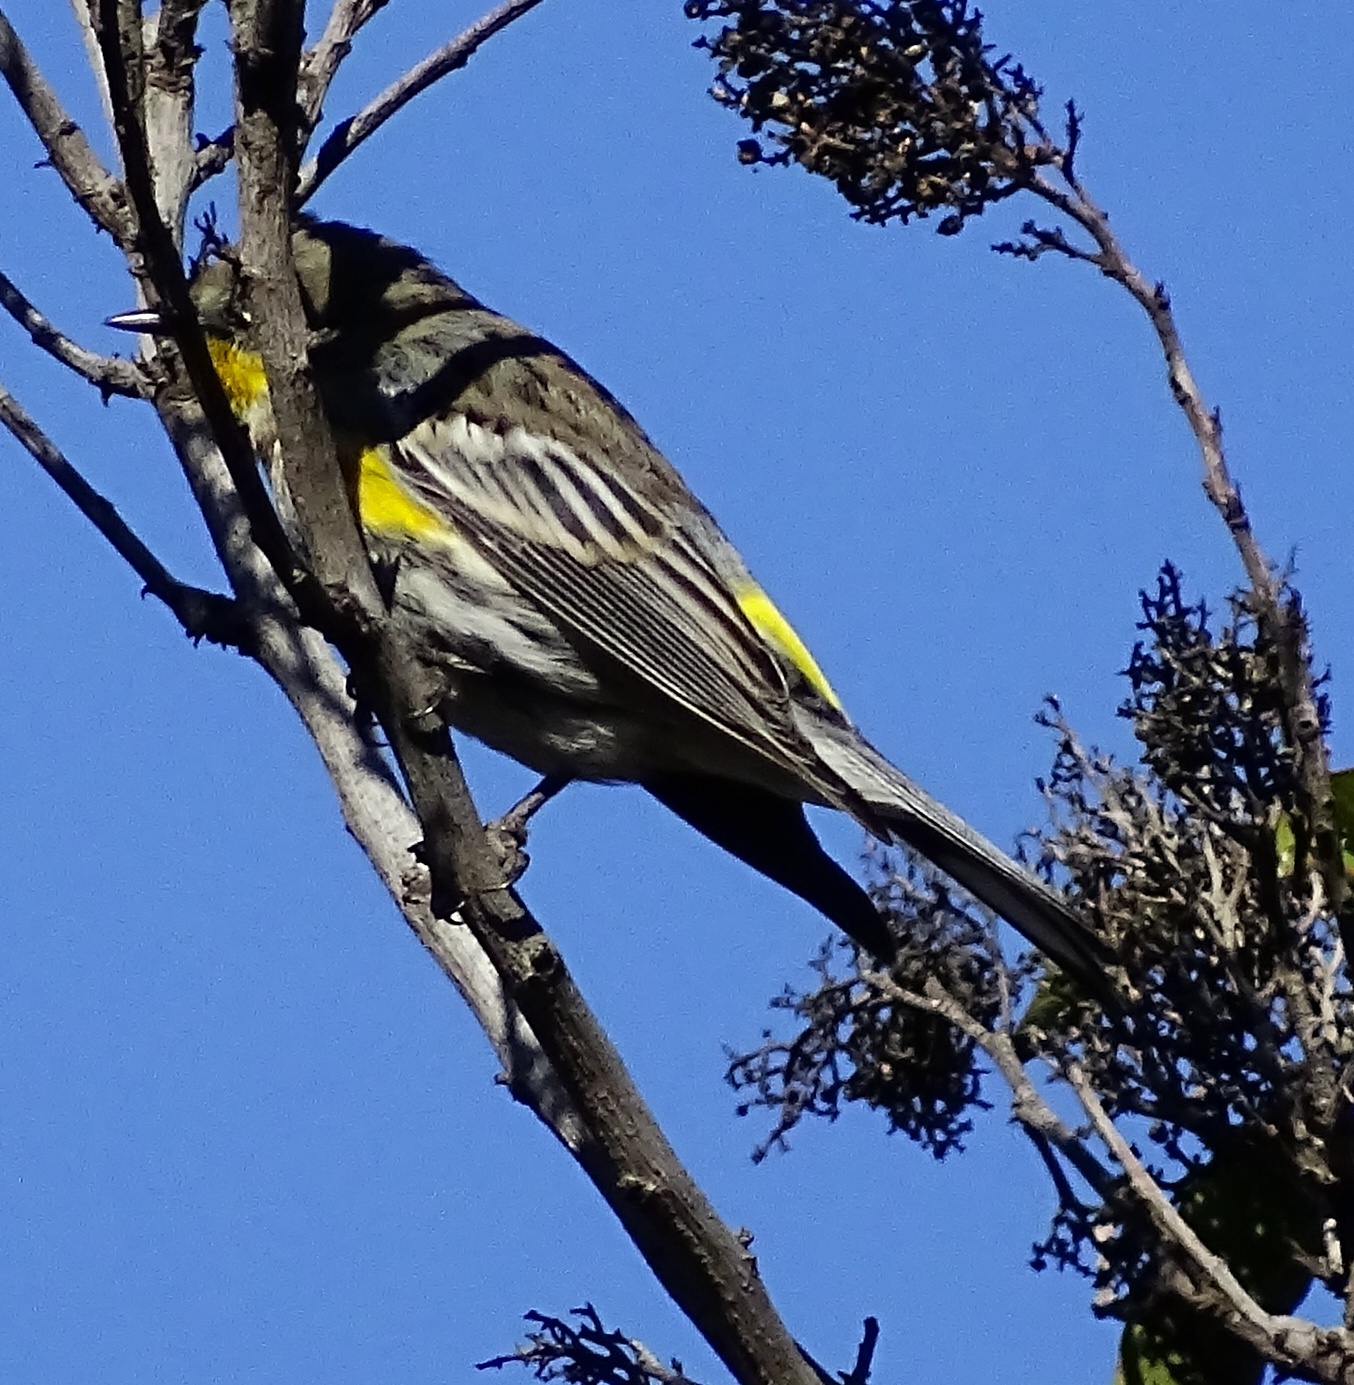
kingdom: Animalia
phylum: Chordata
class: Aves
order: Passeriformes
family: Parulidae
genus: Setophaga
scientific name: Setophaga coronata
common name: Myrtle warbler
